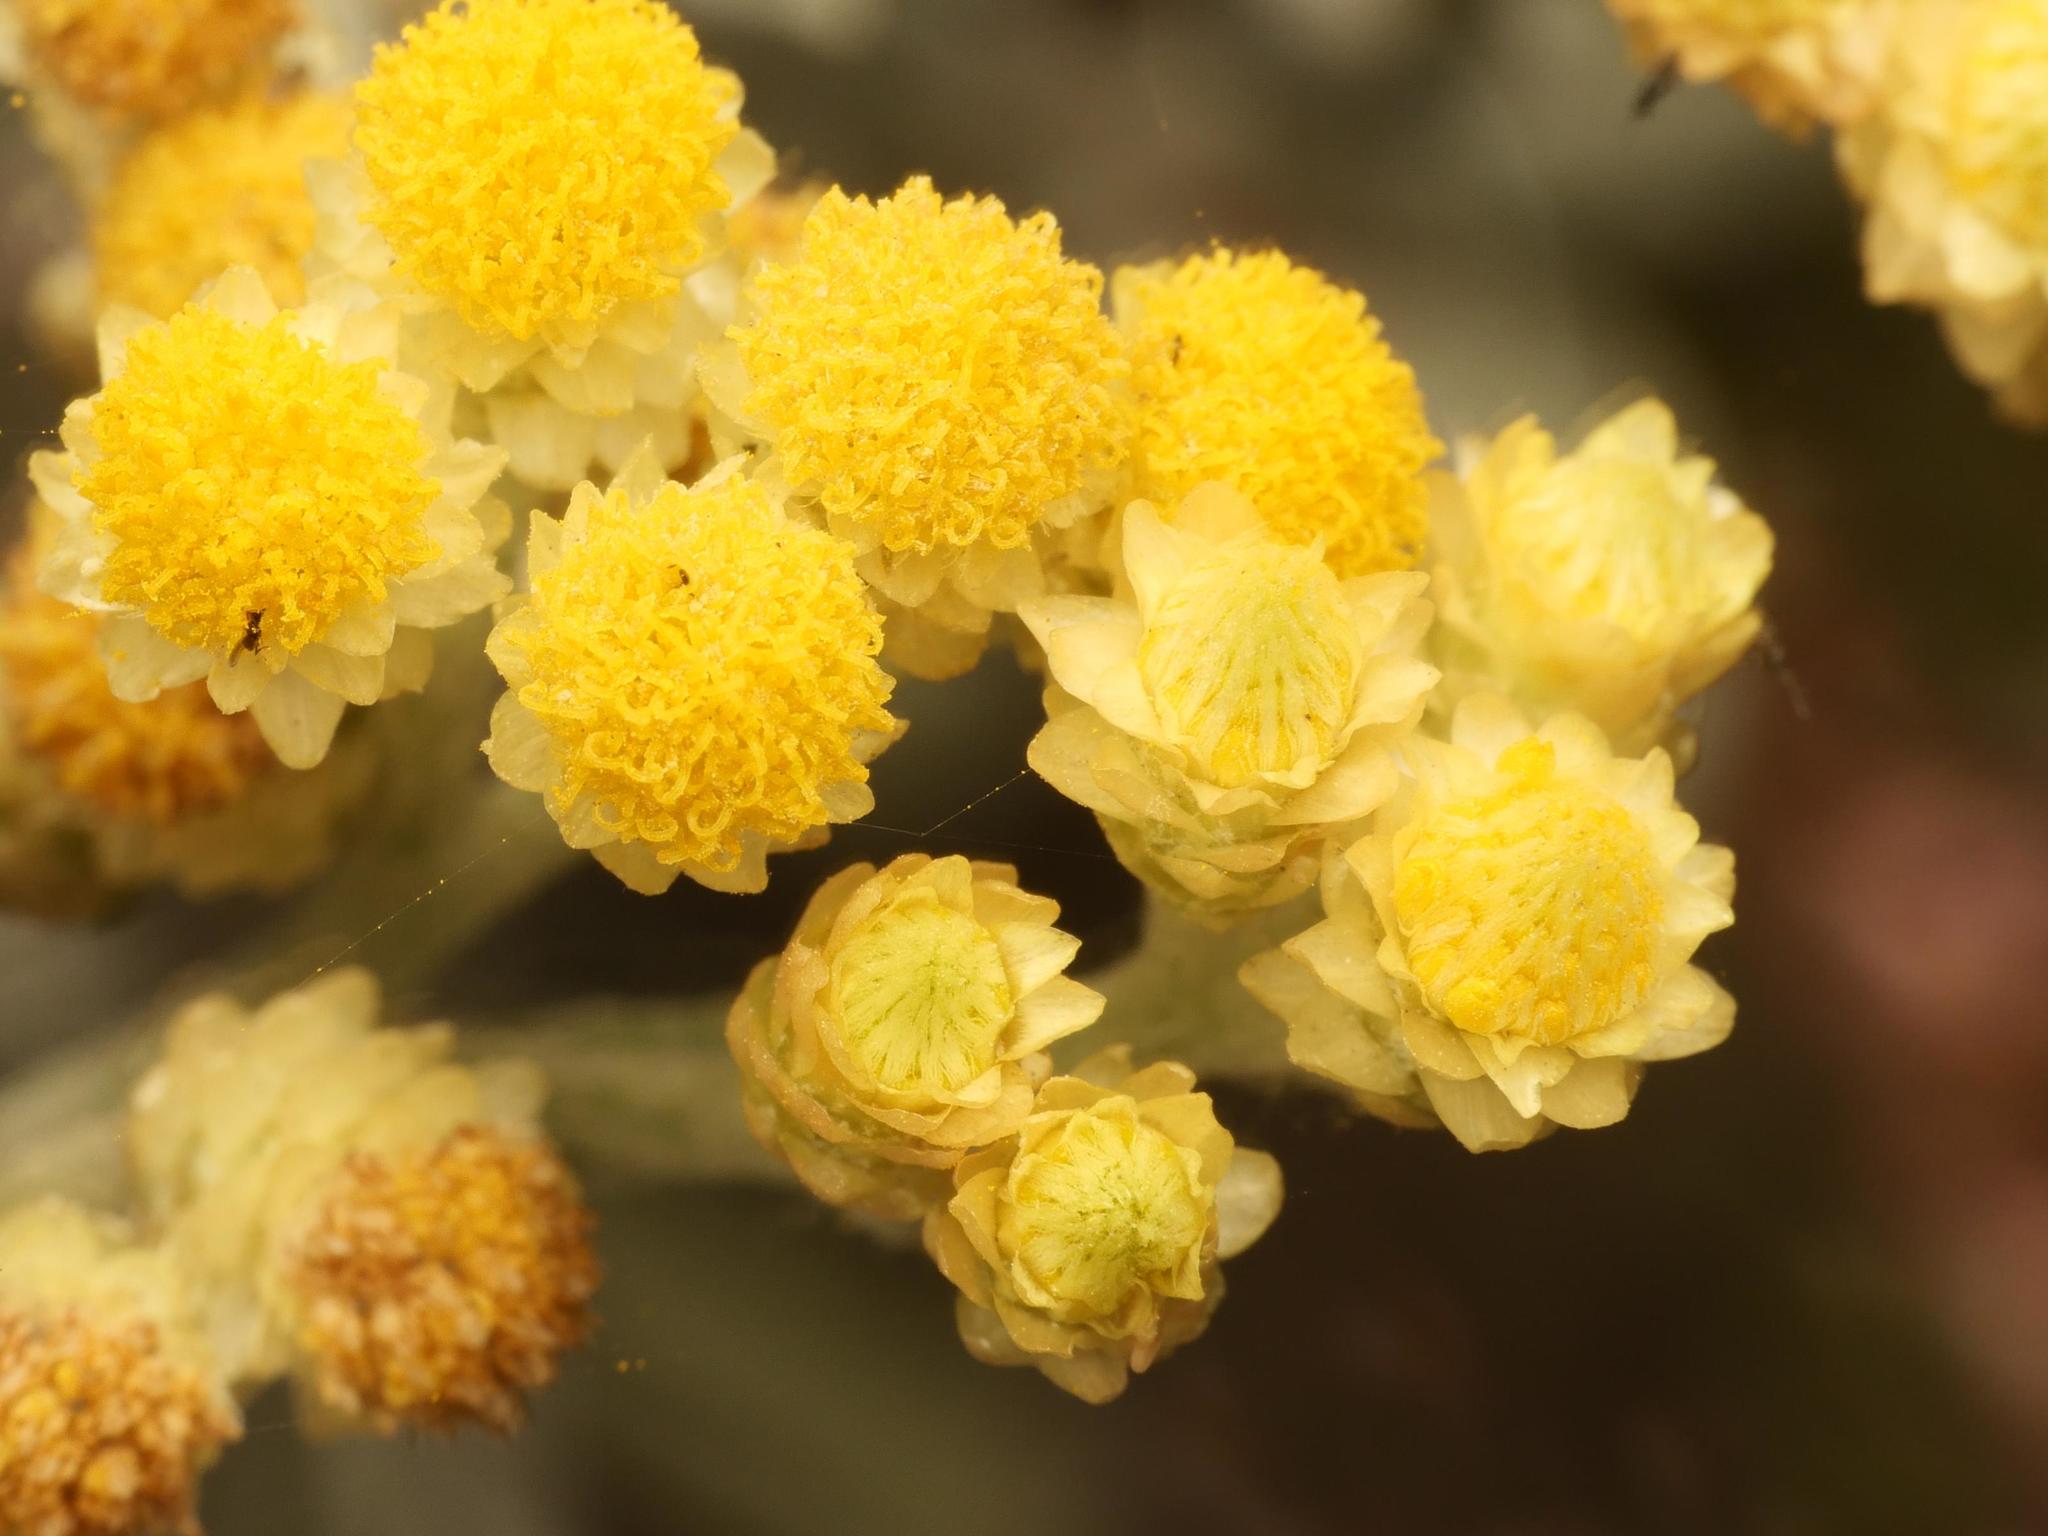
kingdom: Plantae
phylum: Tracheophyta
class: Magnoliopsida
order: Asterales
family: Asteraceae
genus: Helichrysum
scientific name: Helichrysum arenarium
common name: Strawflower
